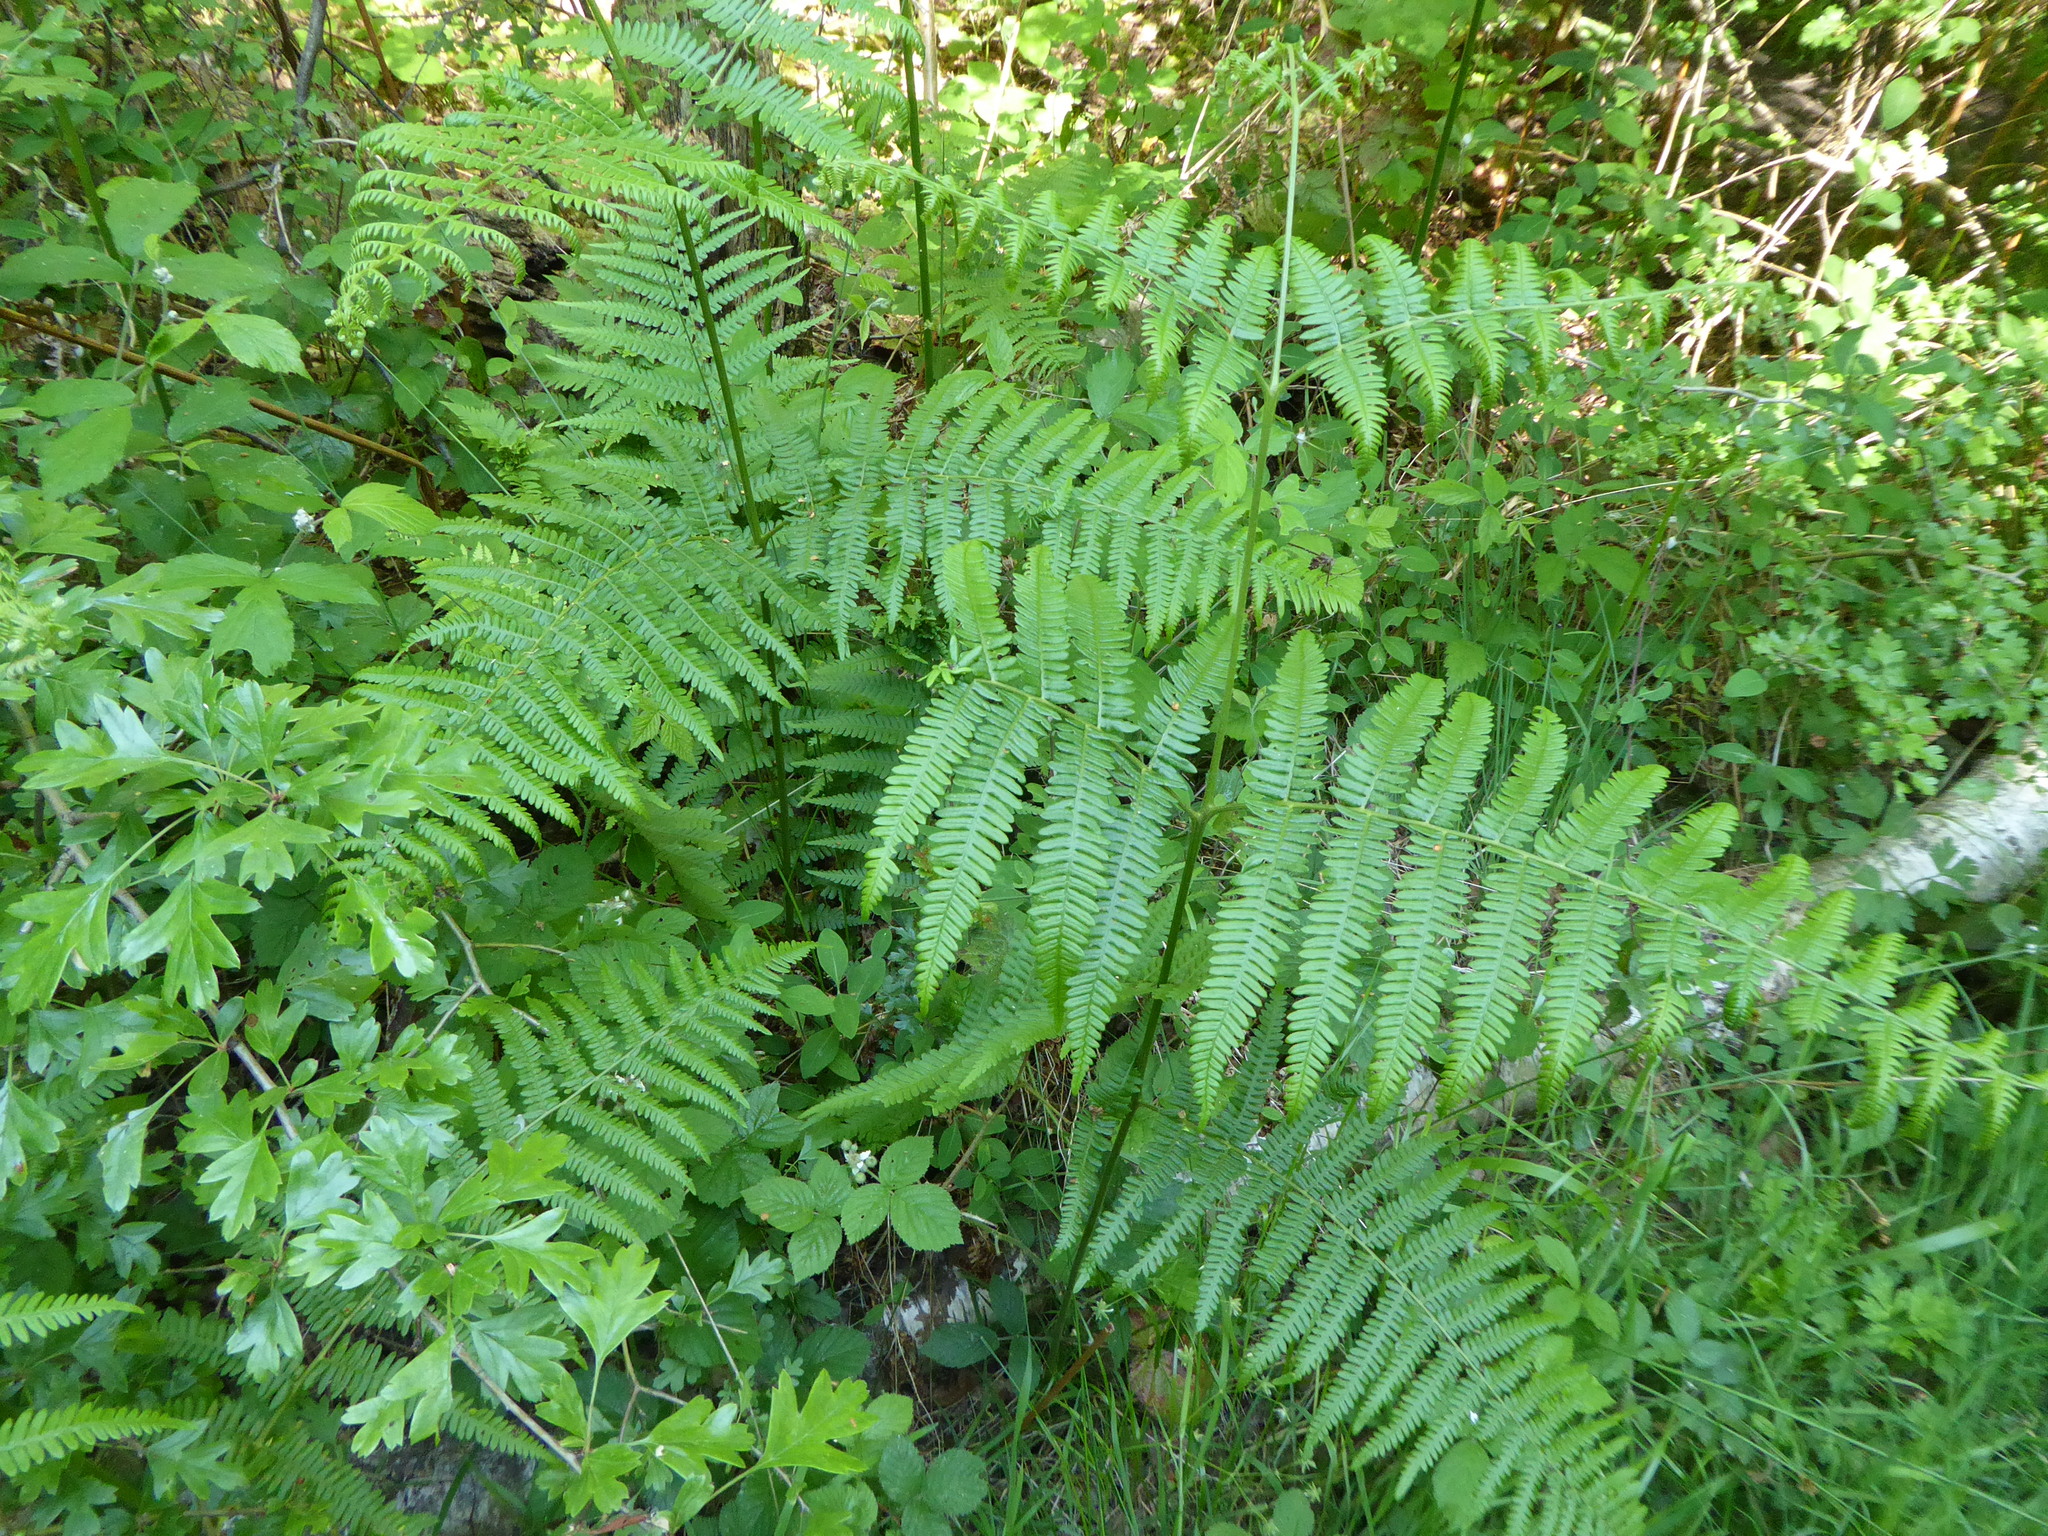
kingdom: Plantae
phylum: Tracheophyta
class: Polypodiopsida
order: Polypodiales
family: Dennstaedtiaceae
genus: Pteridium
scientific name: Pteridium aquilinum
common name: Bracken
